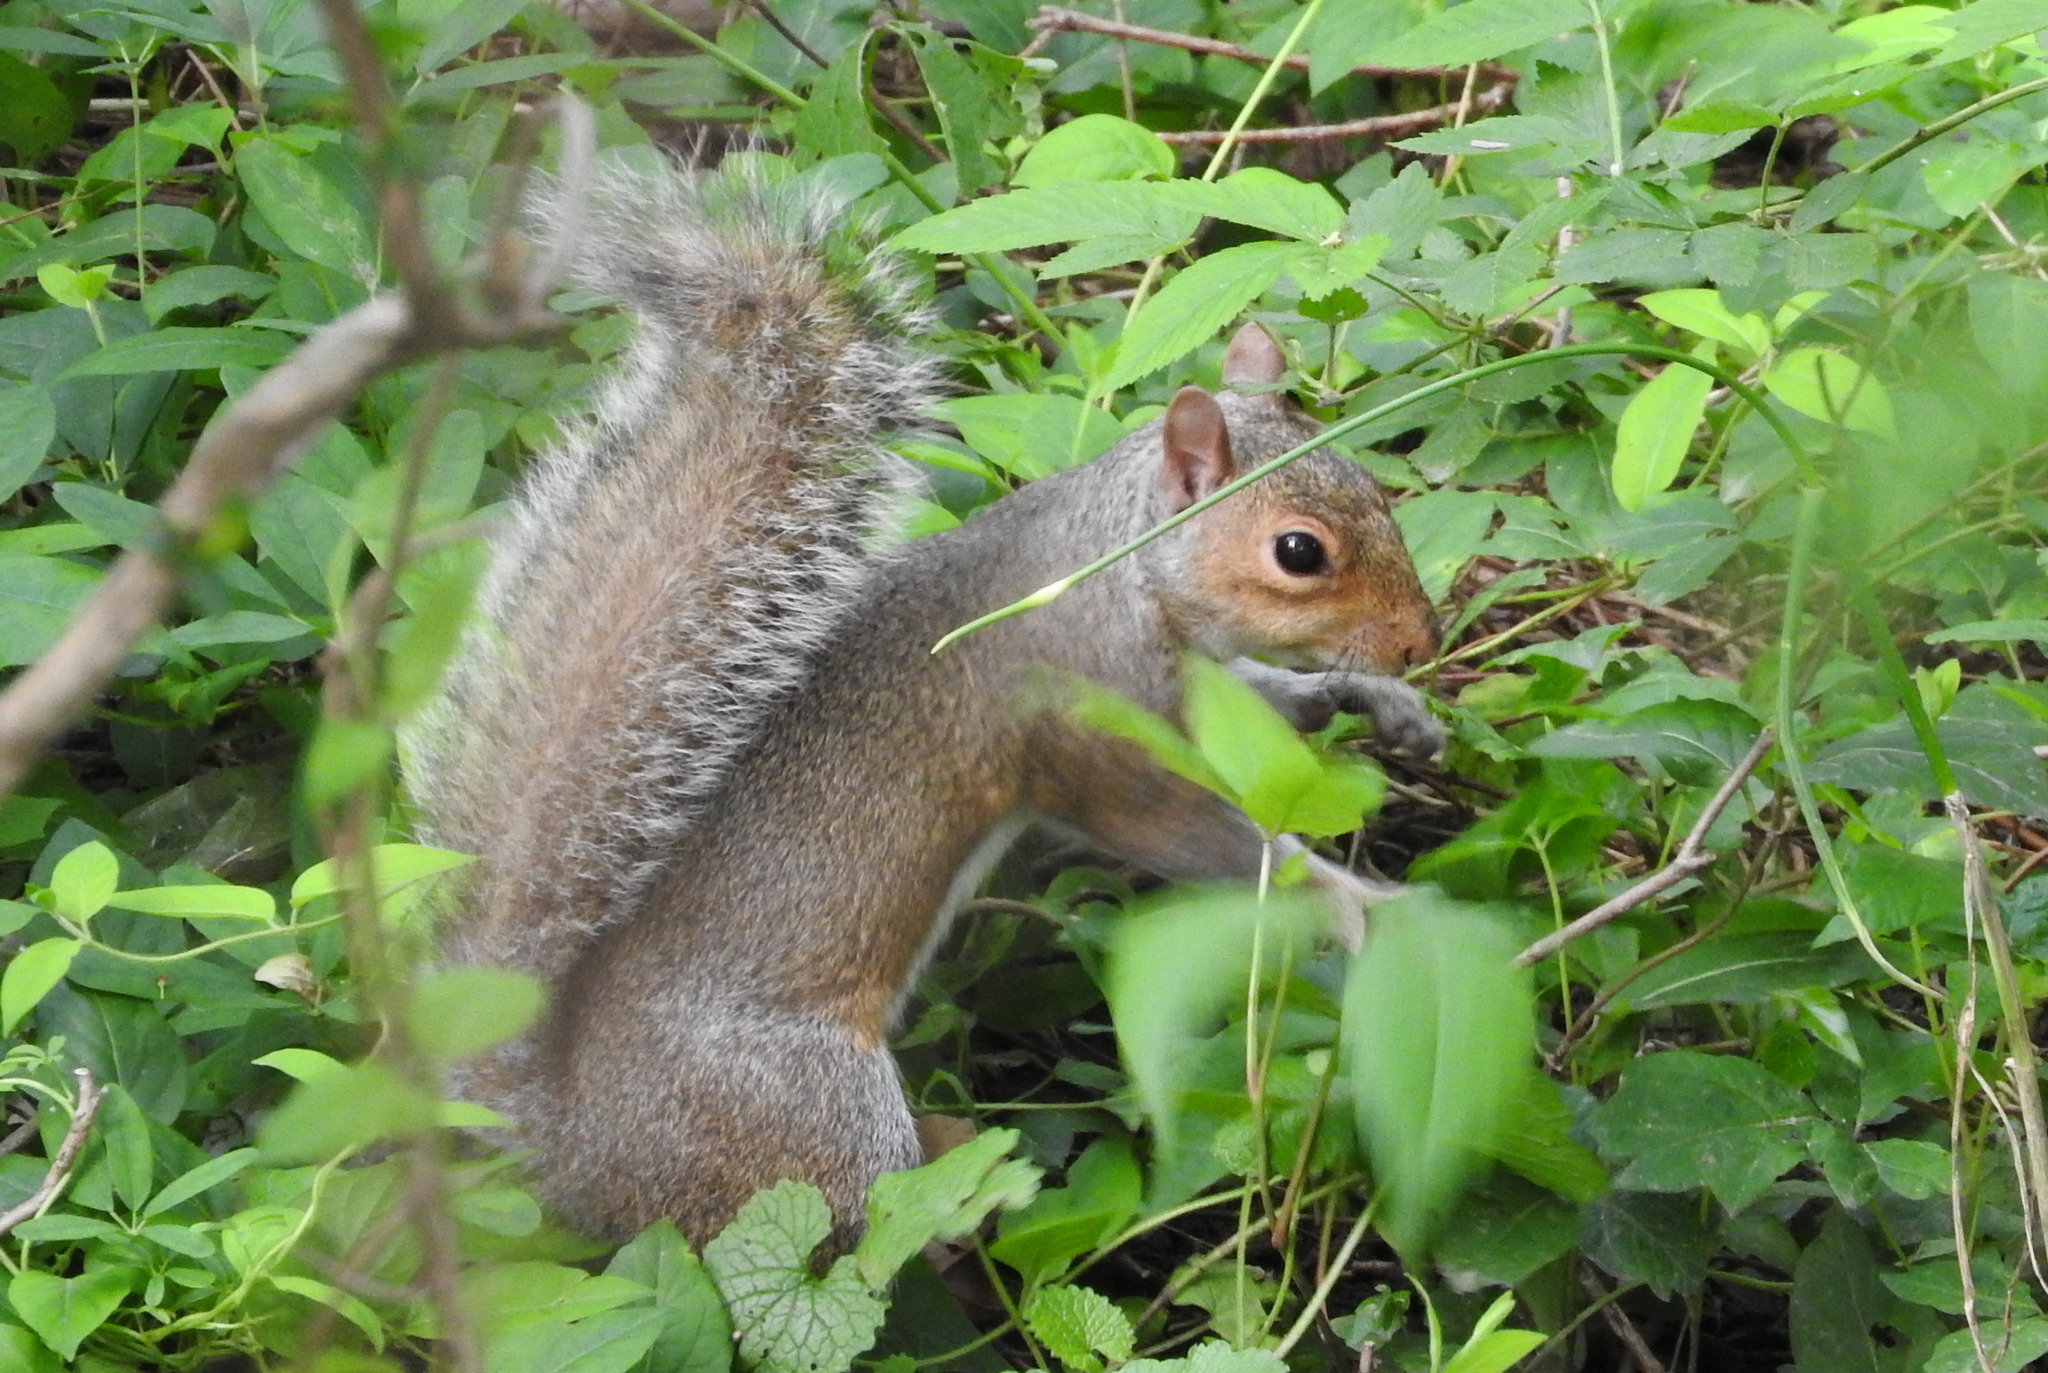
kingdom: Animalia
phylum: Chordata
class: Mammalia
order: Rodentia
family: Sciuridae
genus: Sciurus
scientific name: Sciurus carolinensis
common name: Eastern gray squirrel
